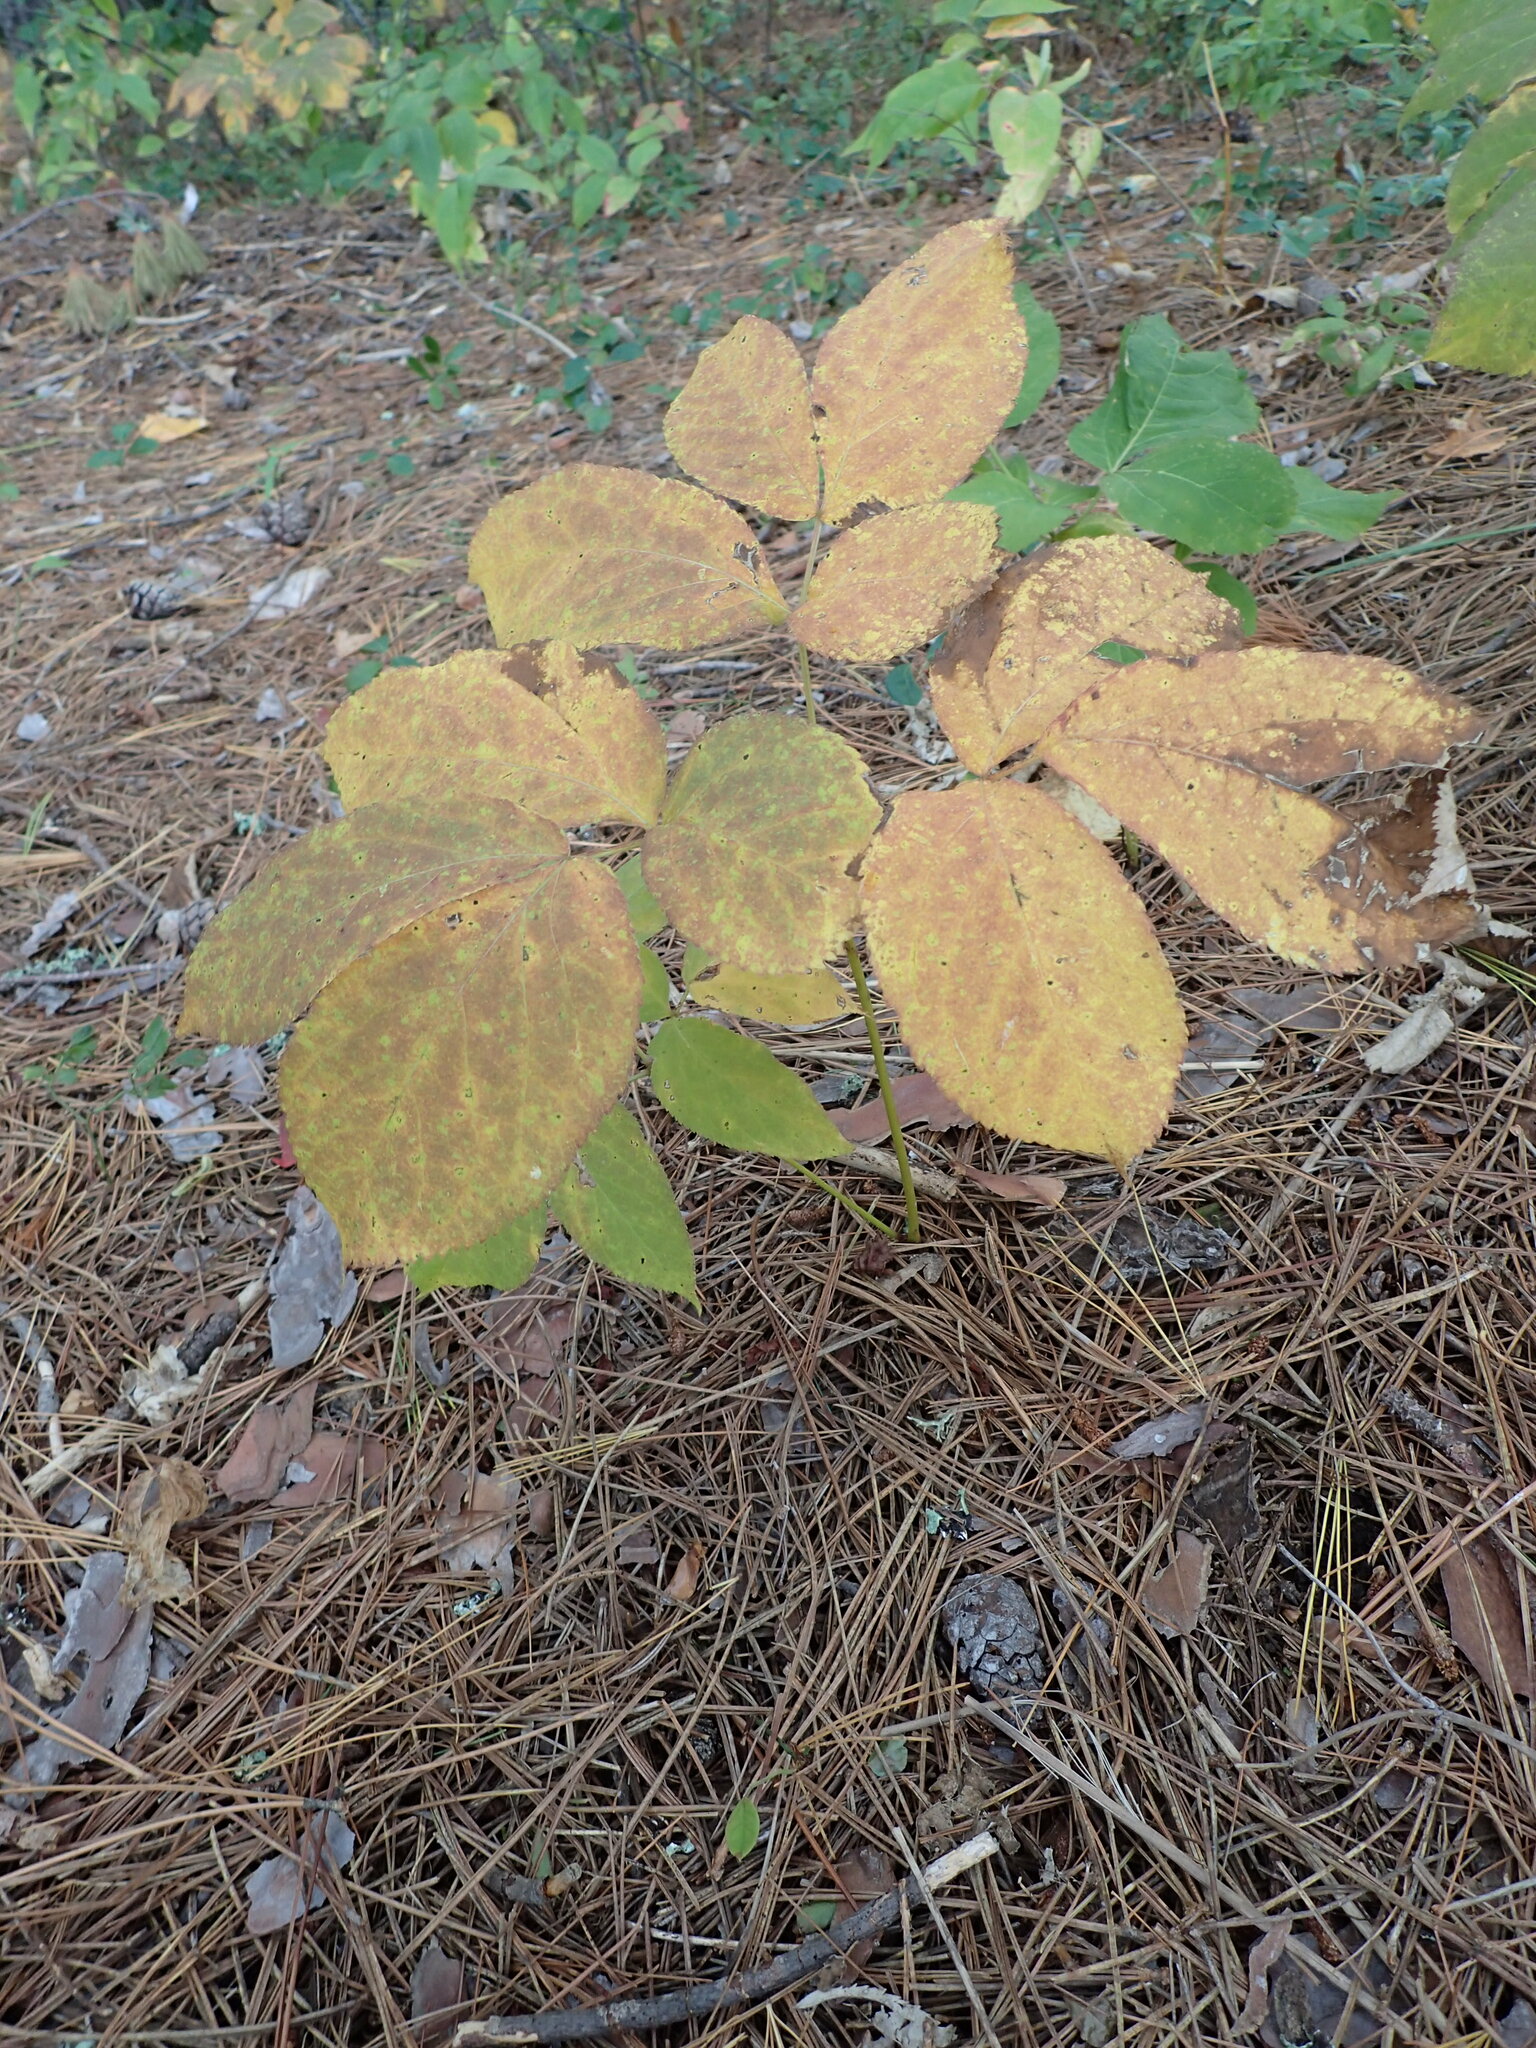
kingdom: Plantae
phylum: Tracheophyta
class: Magnoliopsida
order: Apiales
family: Araliaceae
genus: Aralia
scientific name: Aralia nudicaulis
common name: Wild sarsaparilla
